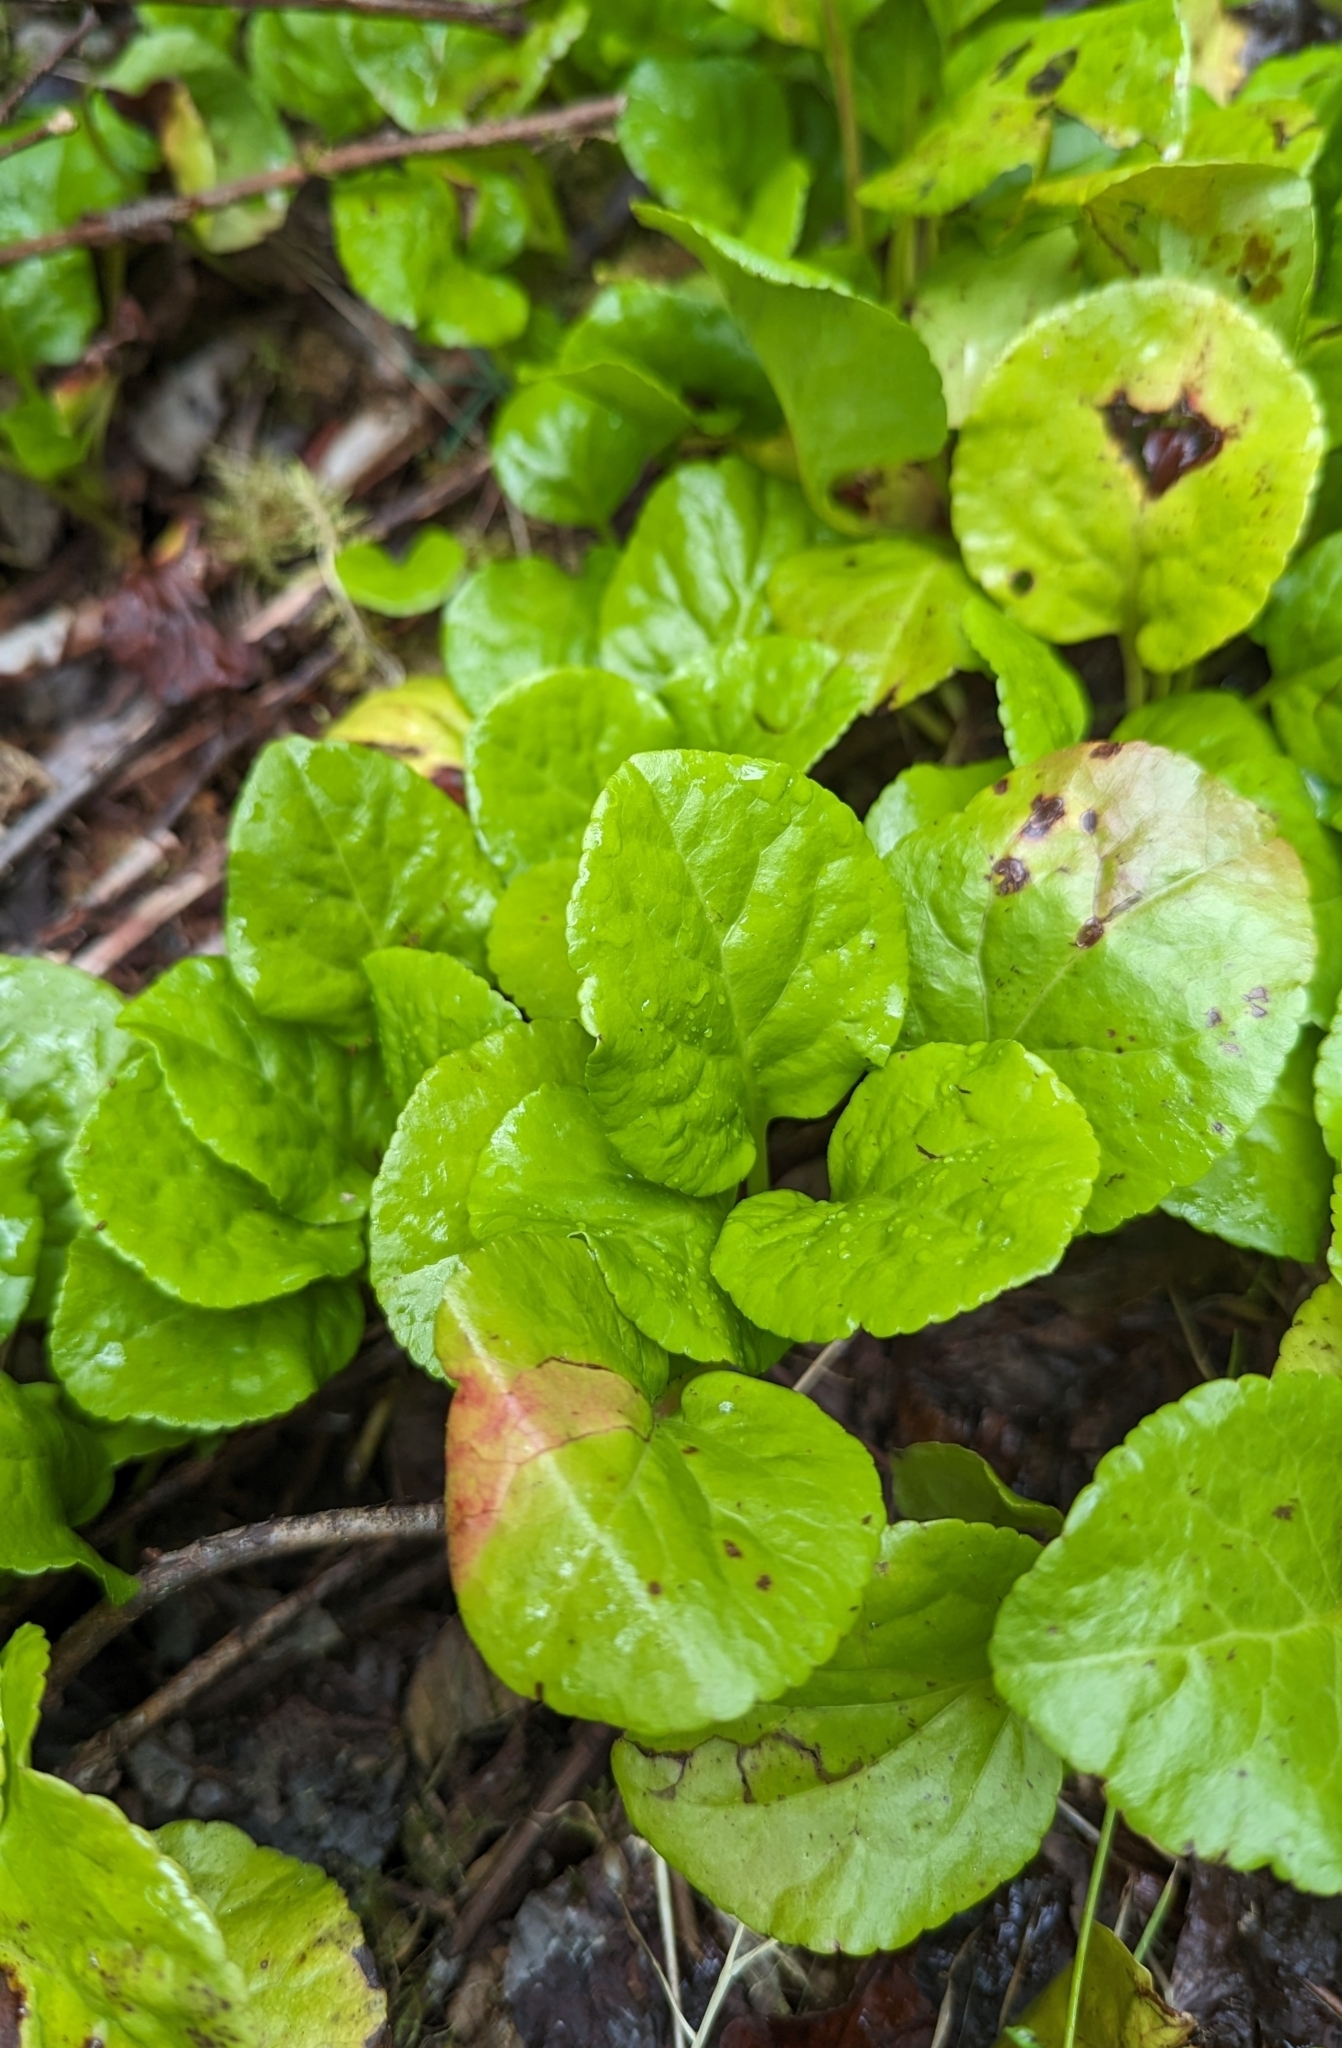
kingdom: Plantae
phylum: Tracheophyta
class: Magnoliopsida
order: Ericales
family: Ericaceae
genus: Orthilia
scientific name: Orthilia secunda
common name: One-sided orthilia
